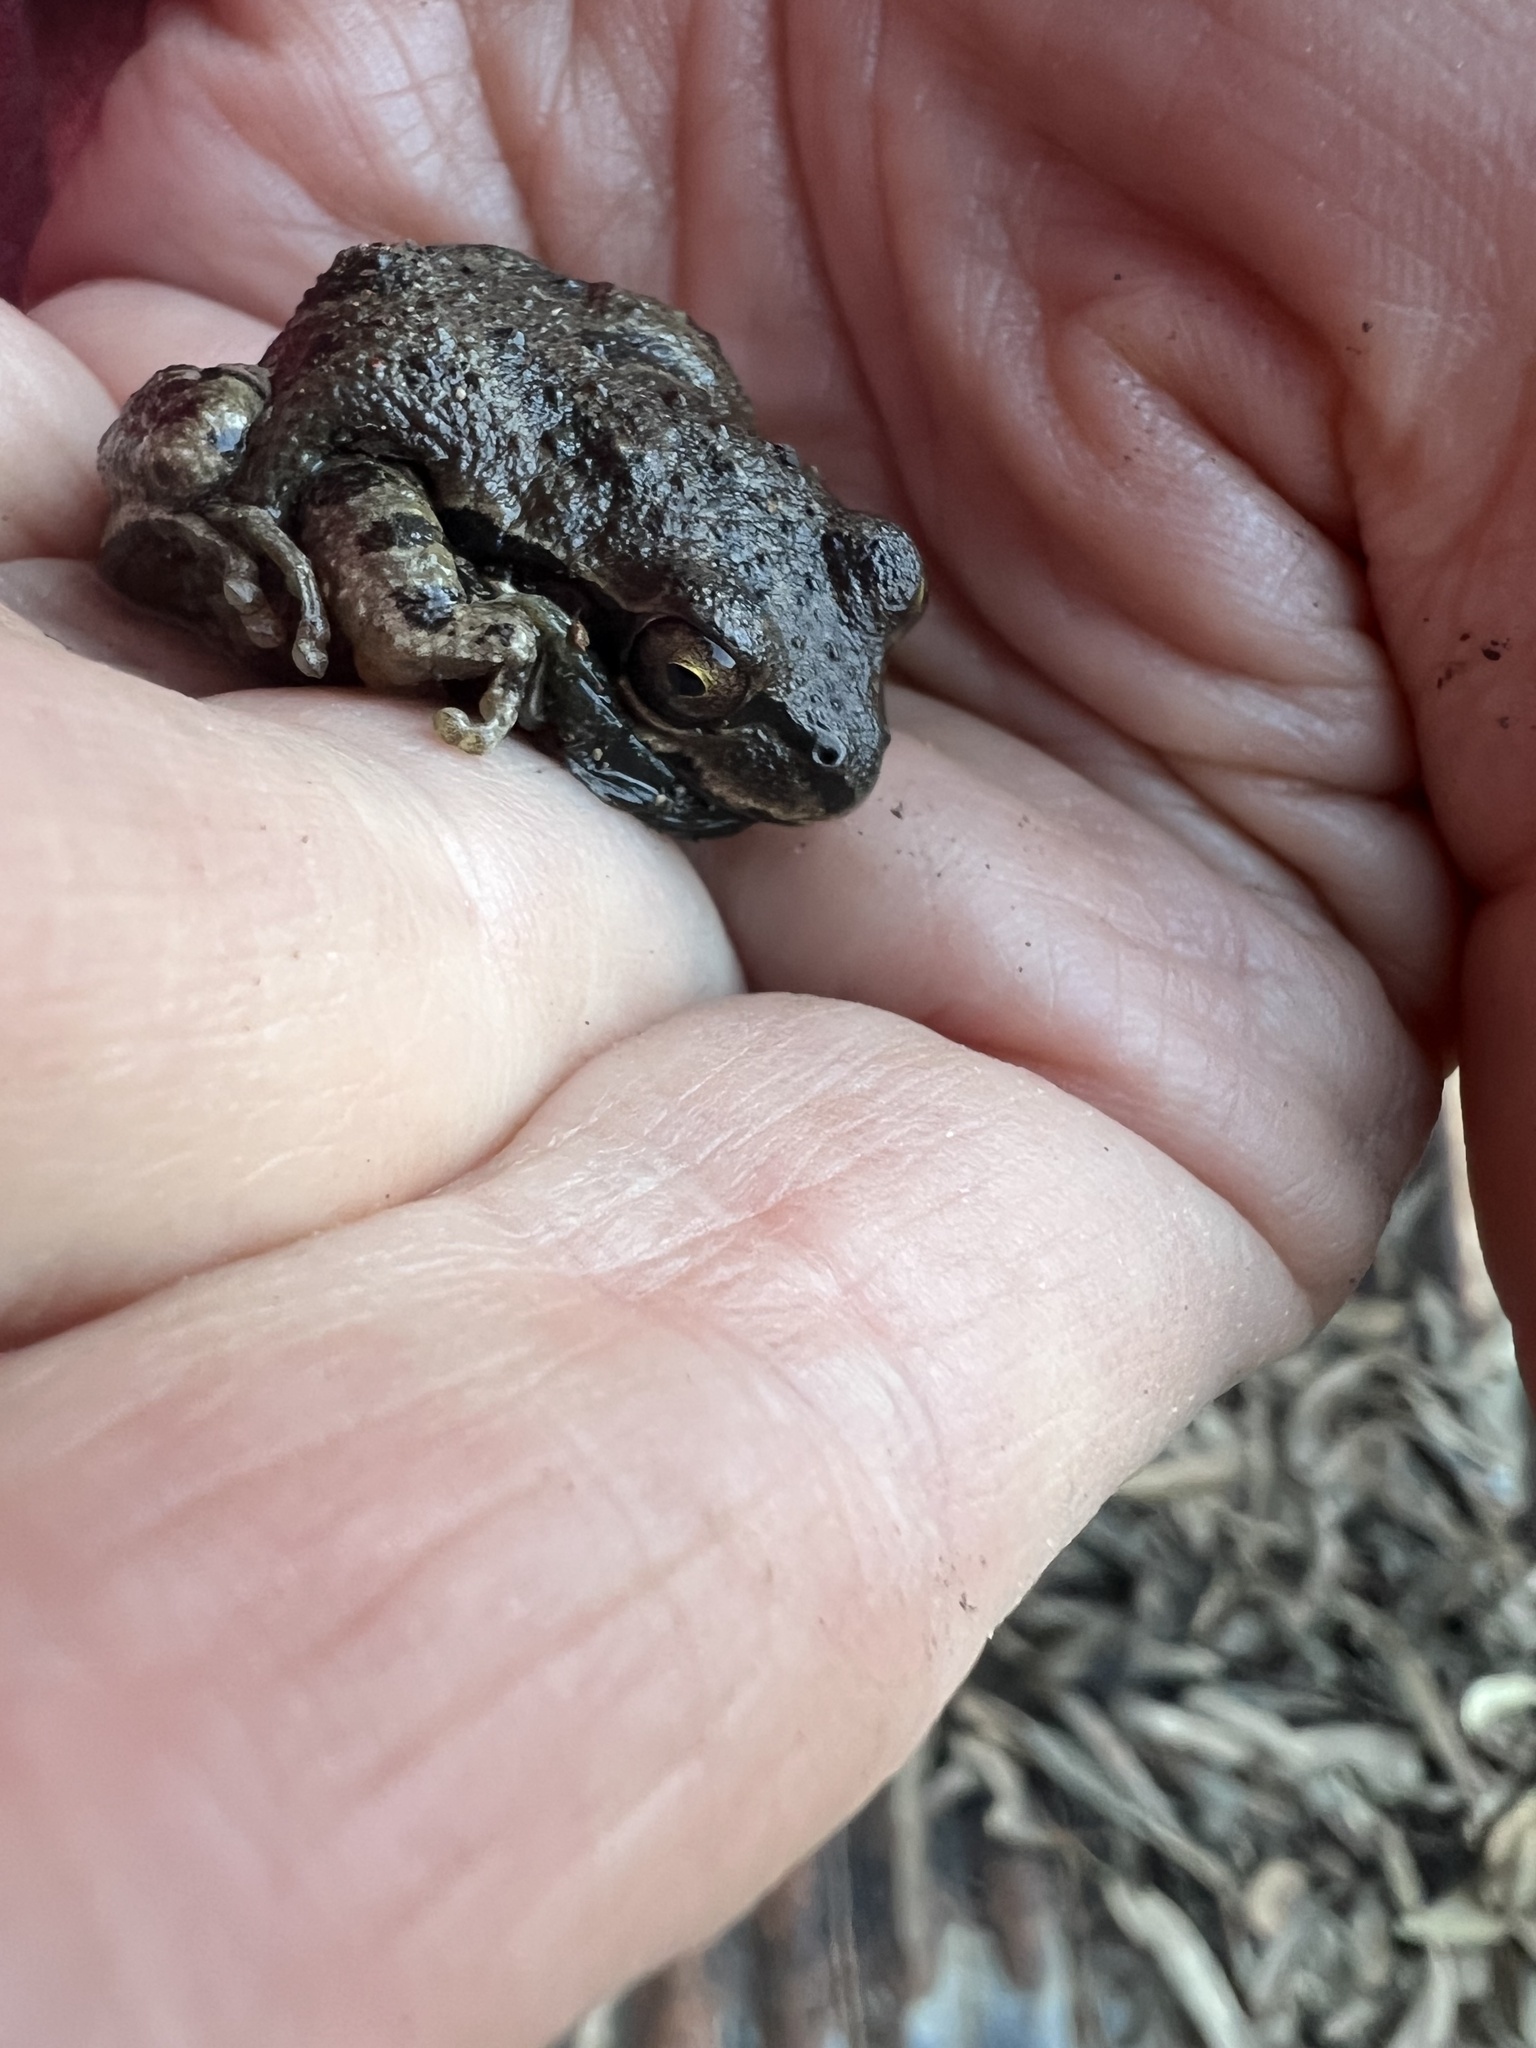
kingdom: Animalia
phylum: Chordata
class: Amphibia
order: Anura
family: Hylidae
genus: Pseudacris
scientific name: Pseudacris regilla
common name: Pacific chorus frog
